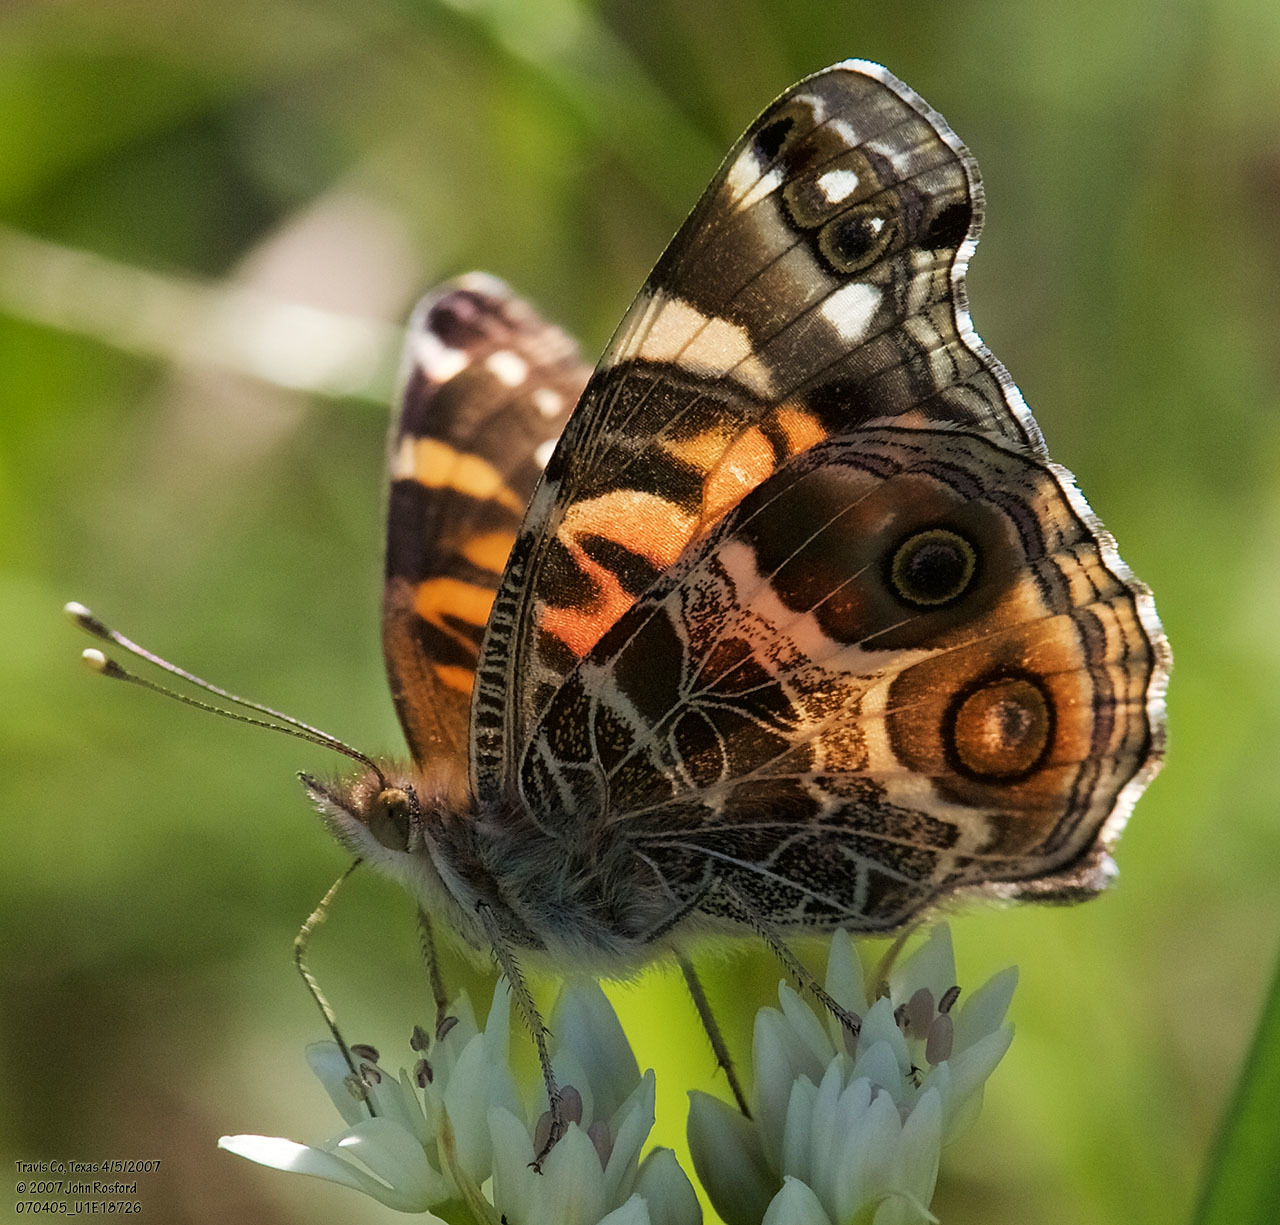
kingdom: Animalia
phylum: Arthropoda
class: Insecta
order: Lepidoptera
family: Nymphalidae
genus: Vanessa
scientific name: Vanessa virginiensis
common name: American lady
